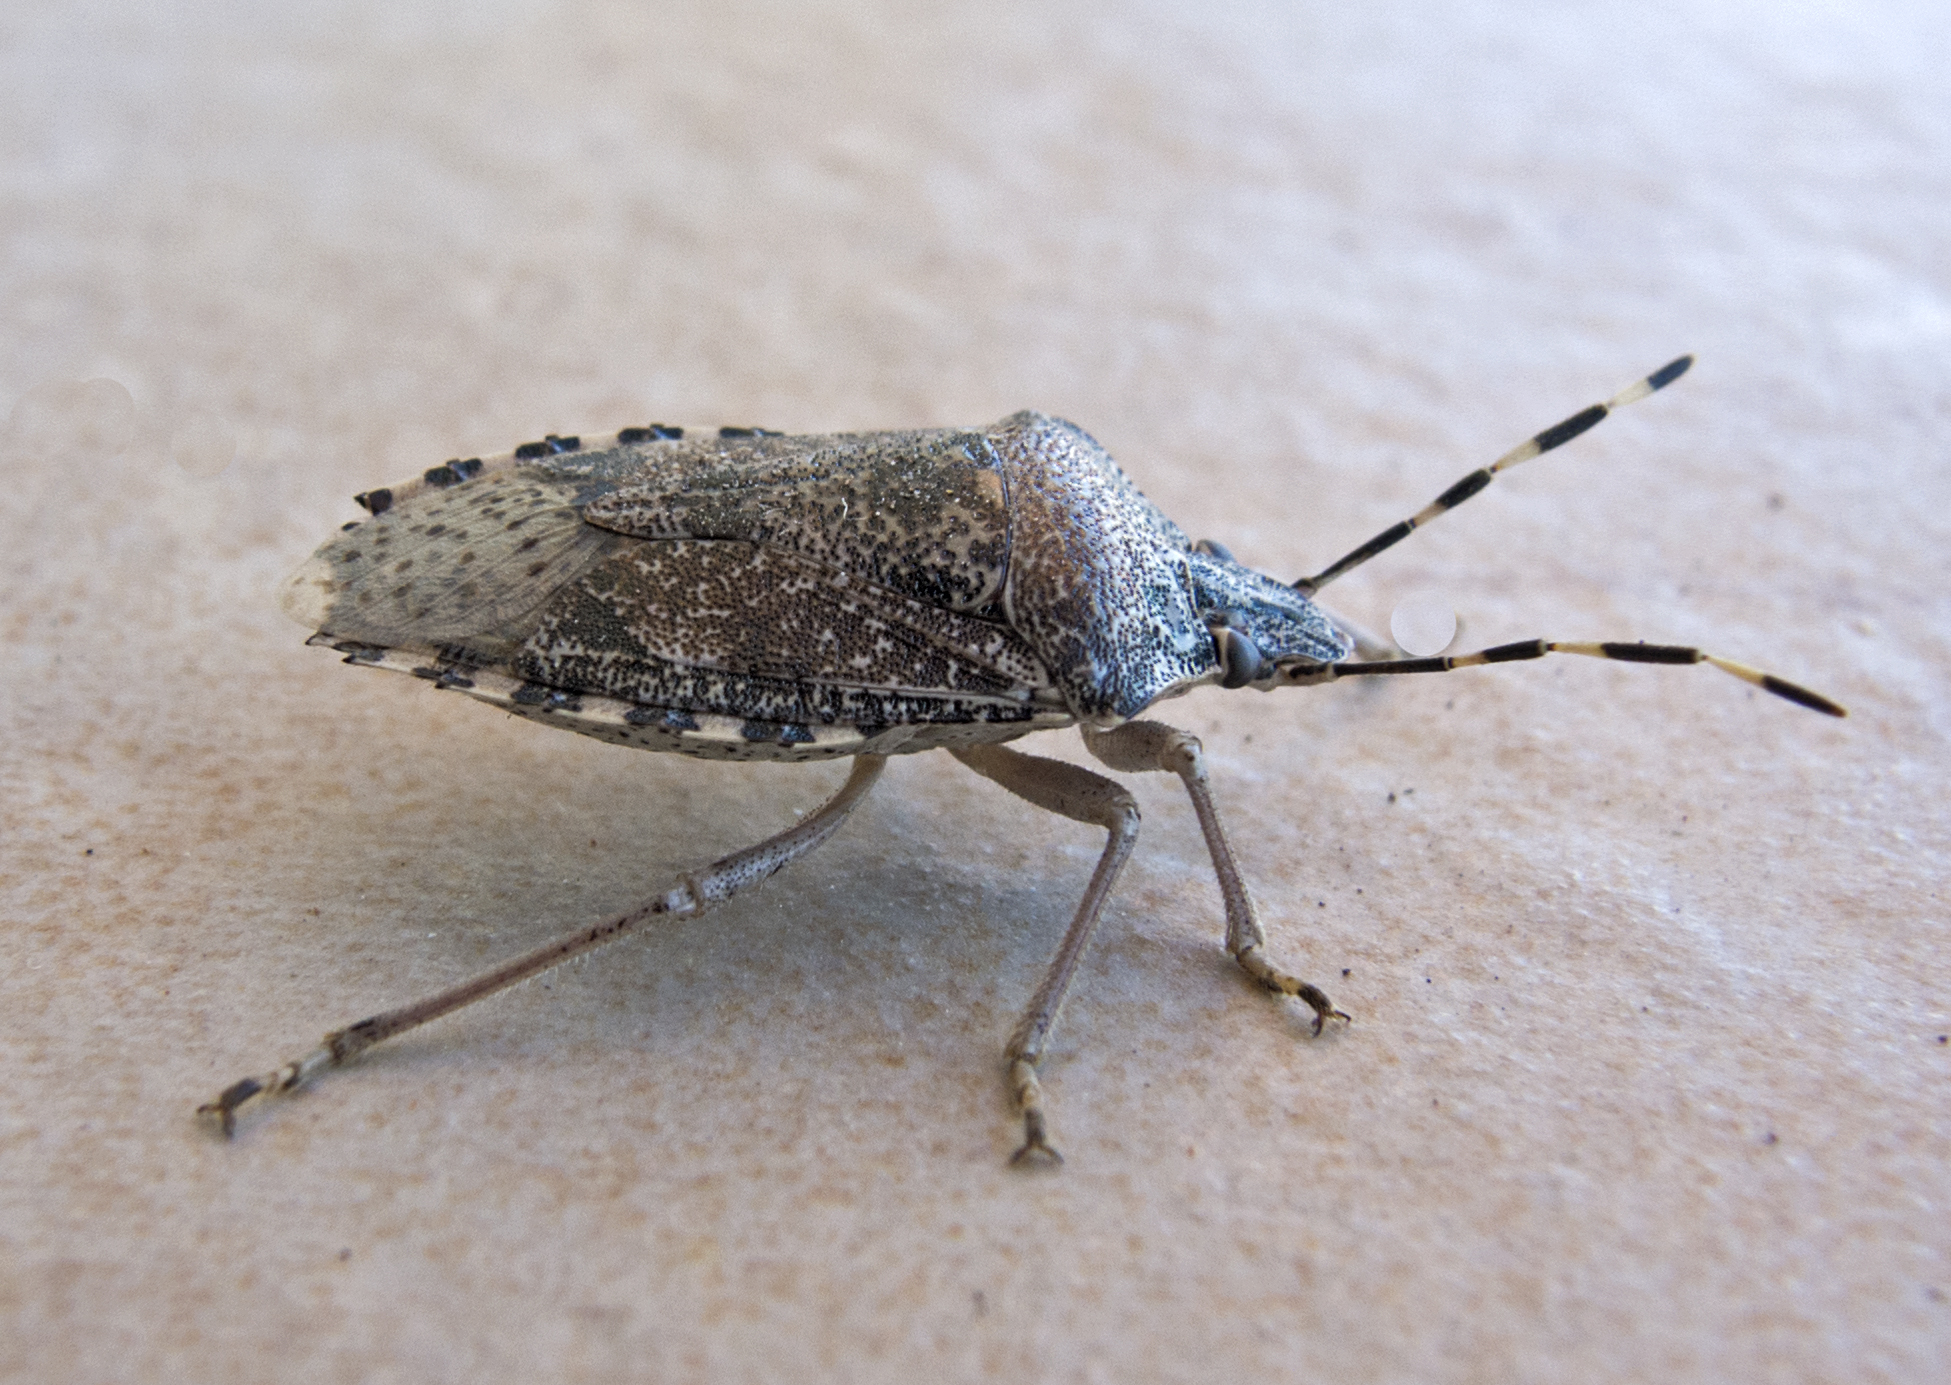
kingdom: Animalia
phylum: Arthropoda
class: Insecta
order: Hemiptera
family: Pentatomidae
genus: Rhaphigaster
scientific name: Rhaphigaster nebulosa
